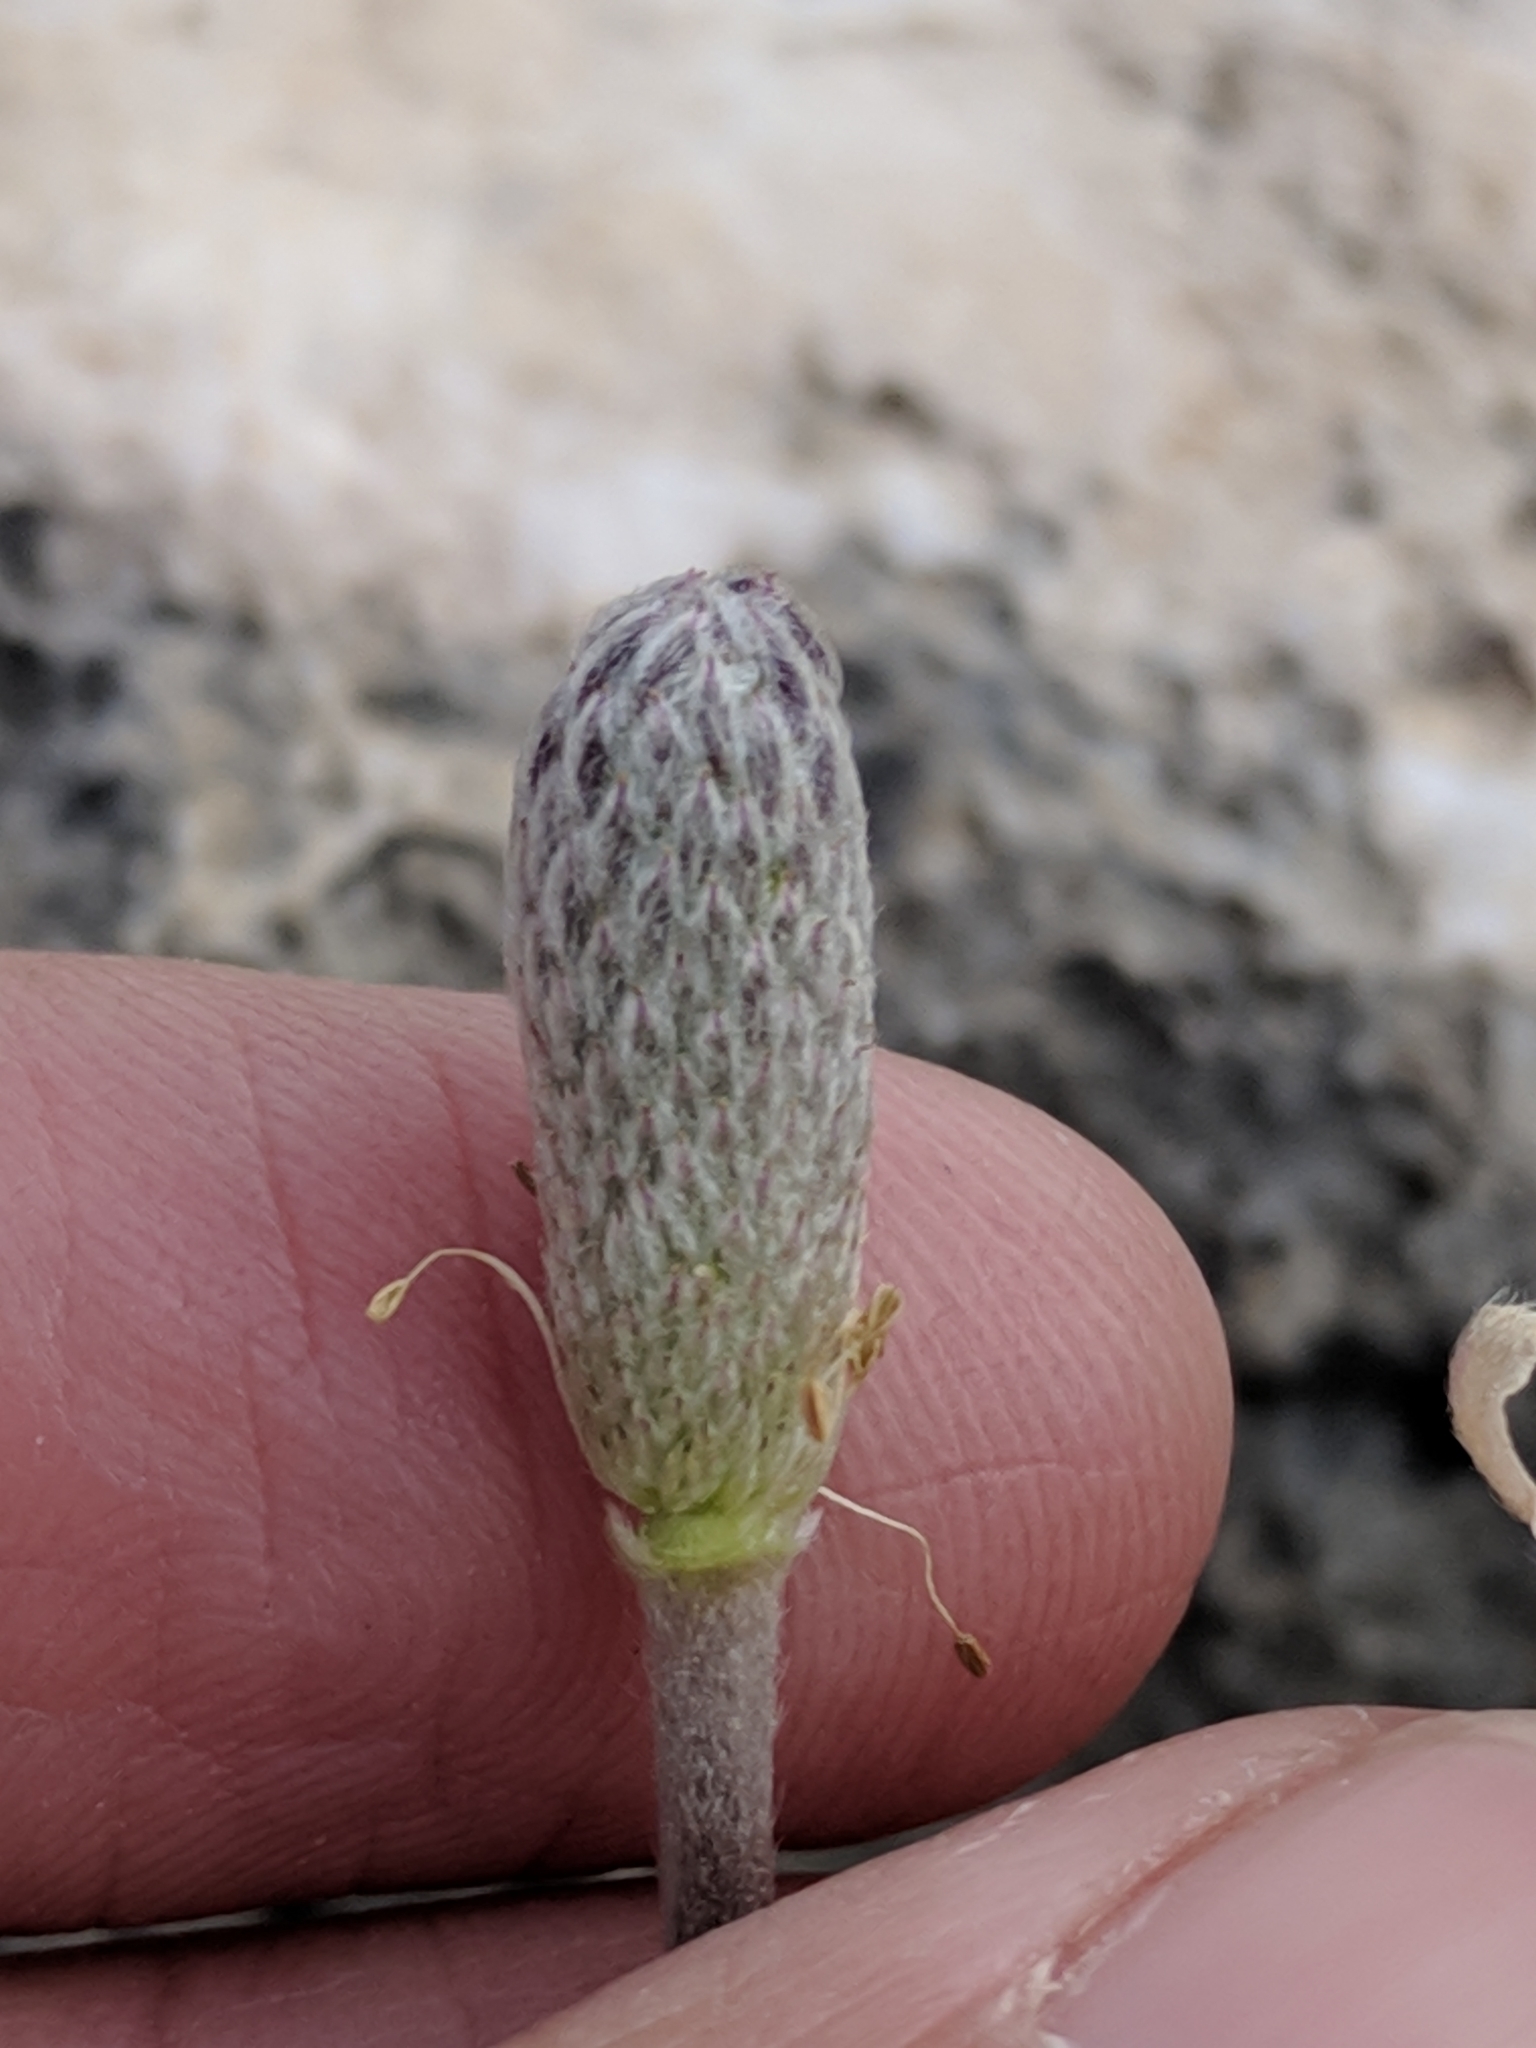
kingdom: Plantae
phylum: Tracheophyta
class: Magnoliopsida
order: Ranunculales
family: Ranunculaceae
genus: Anemone
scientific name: Anemone tuberosa
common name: Desert anemone
